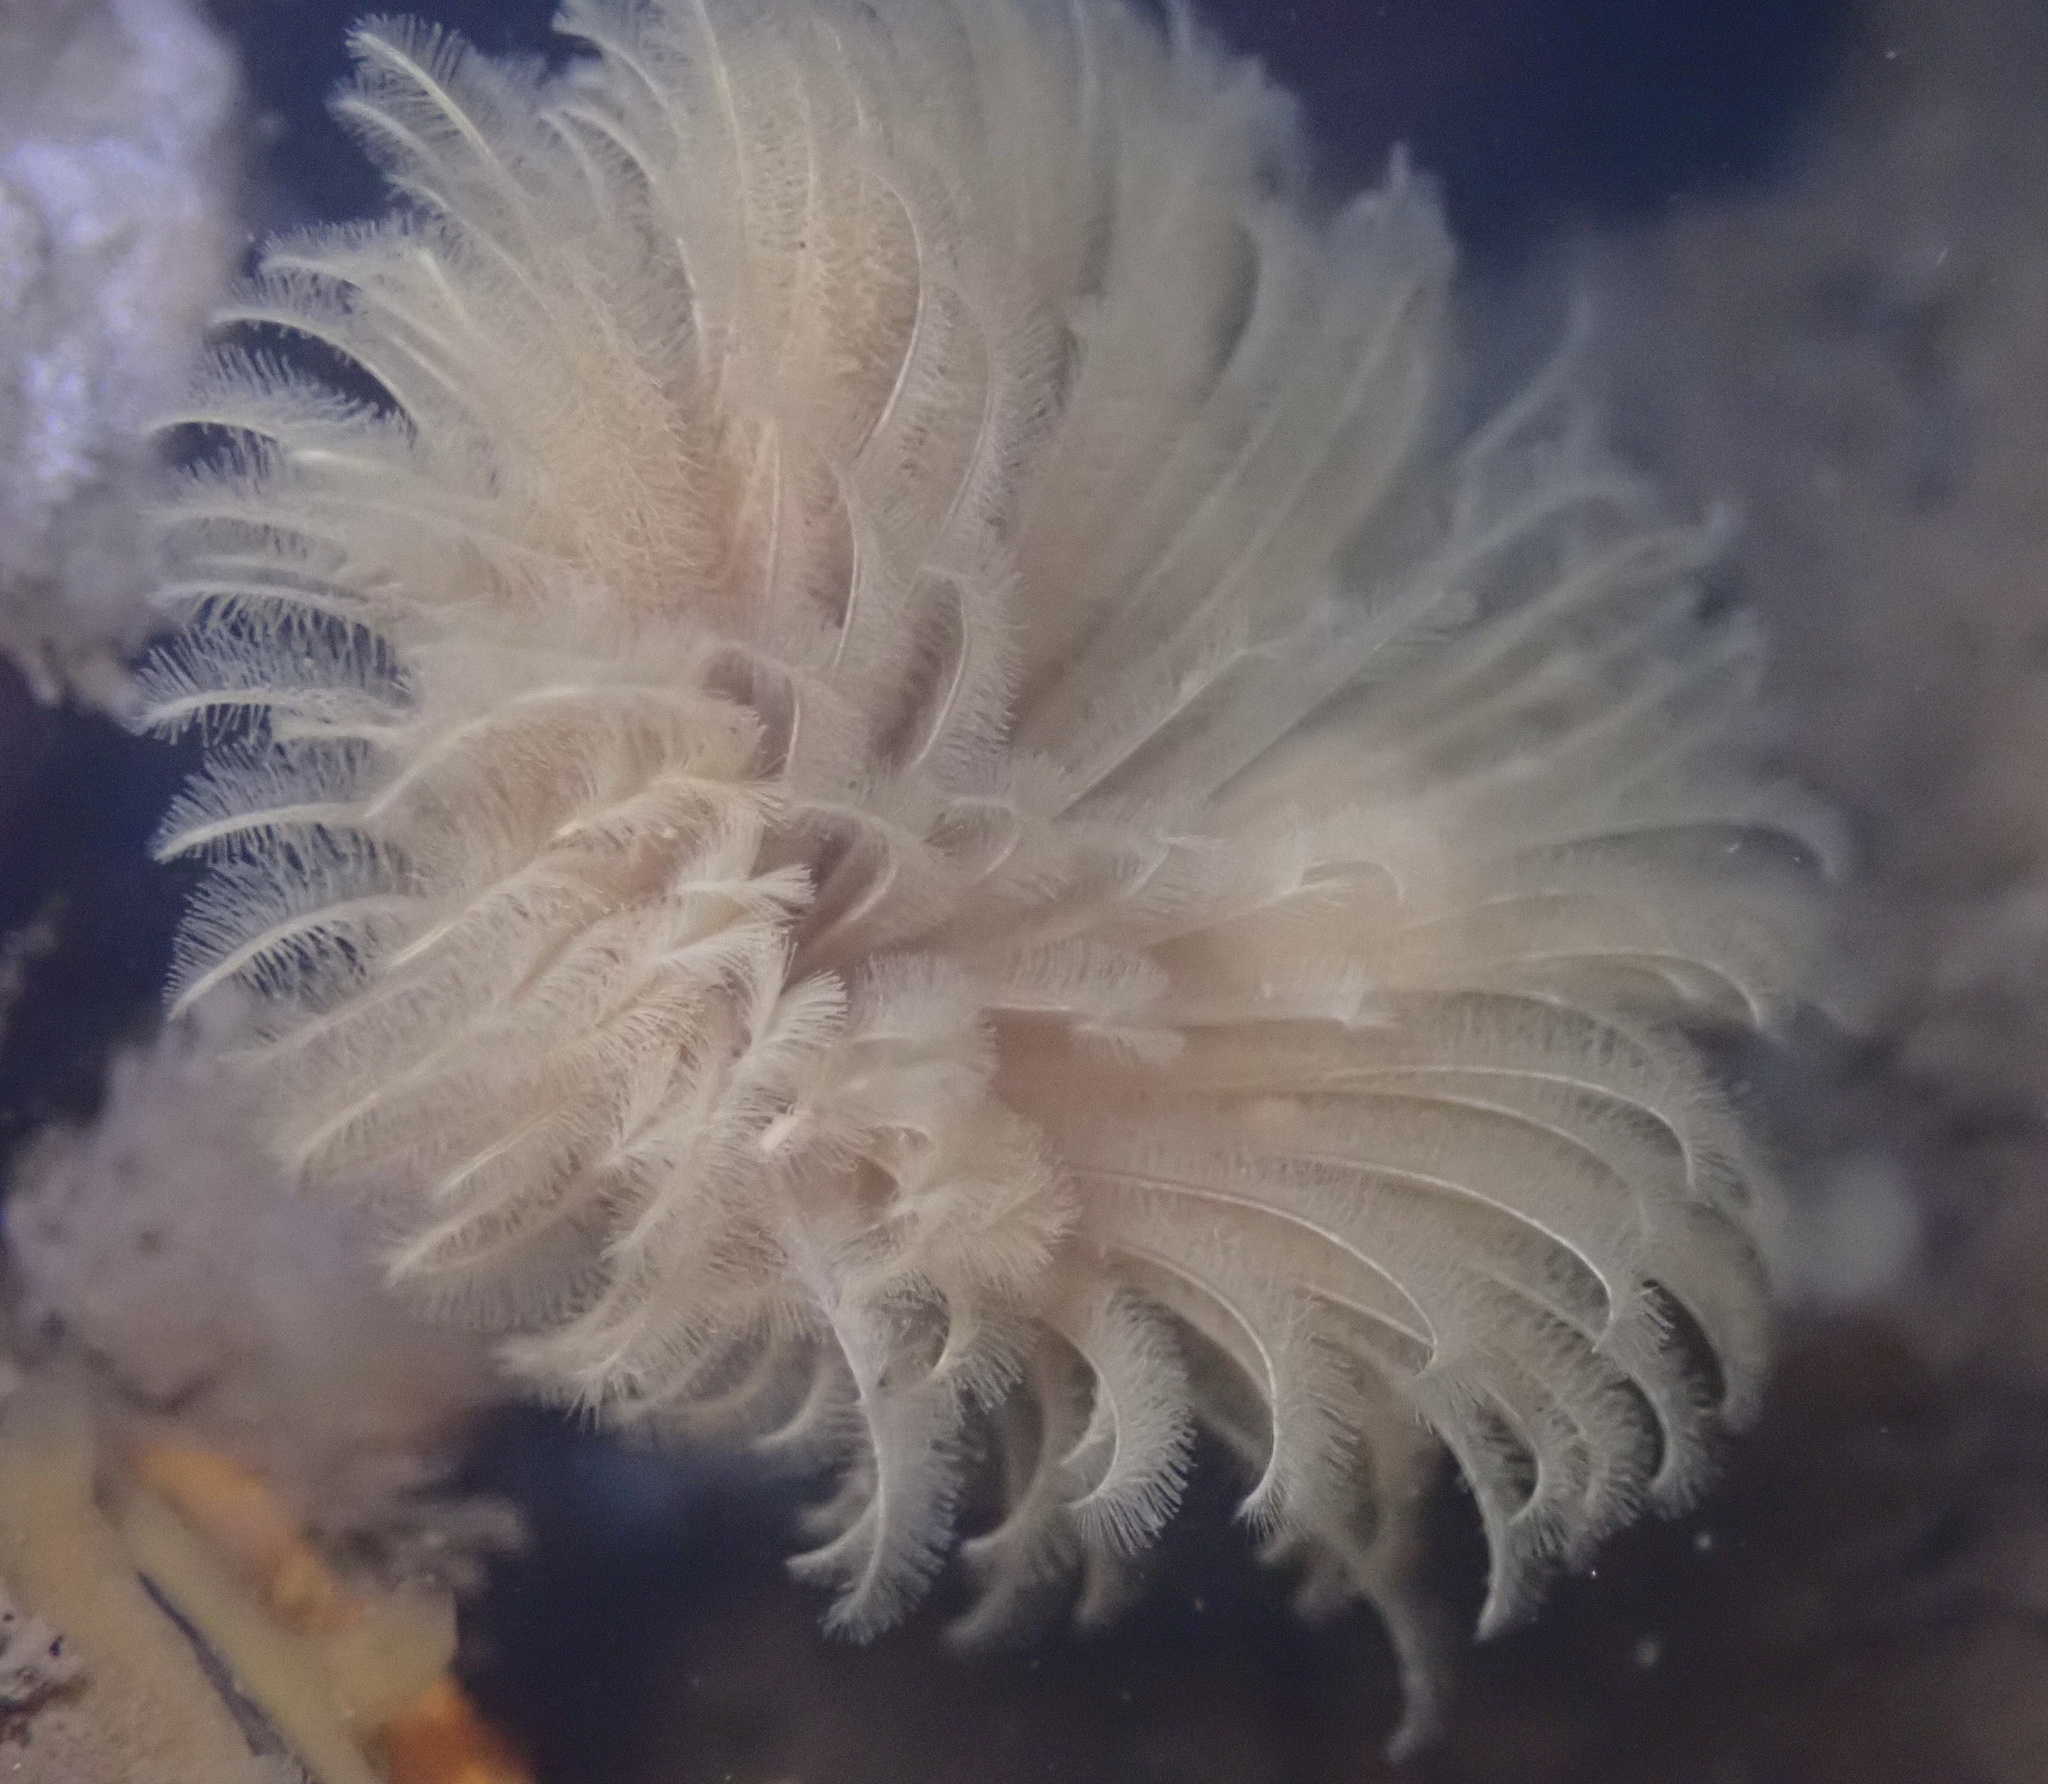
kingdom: Animalia
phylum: Annelida
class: Polychaeta
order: Sabellida
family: Sabellidae
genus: Eudistylia
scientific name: Eudistylia polymorpha
